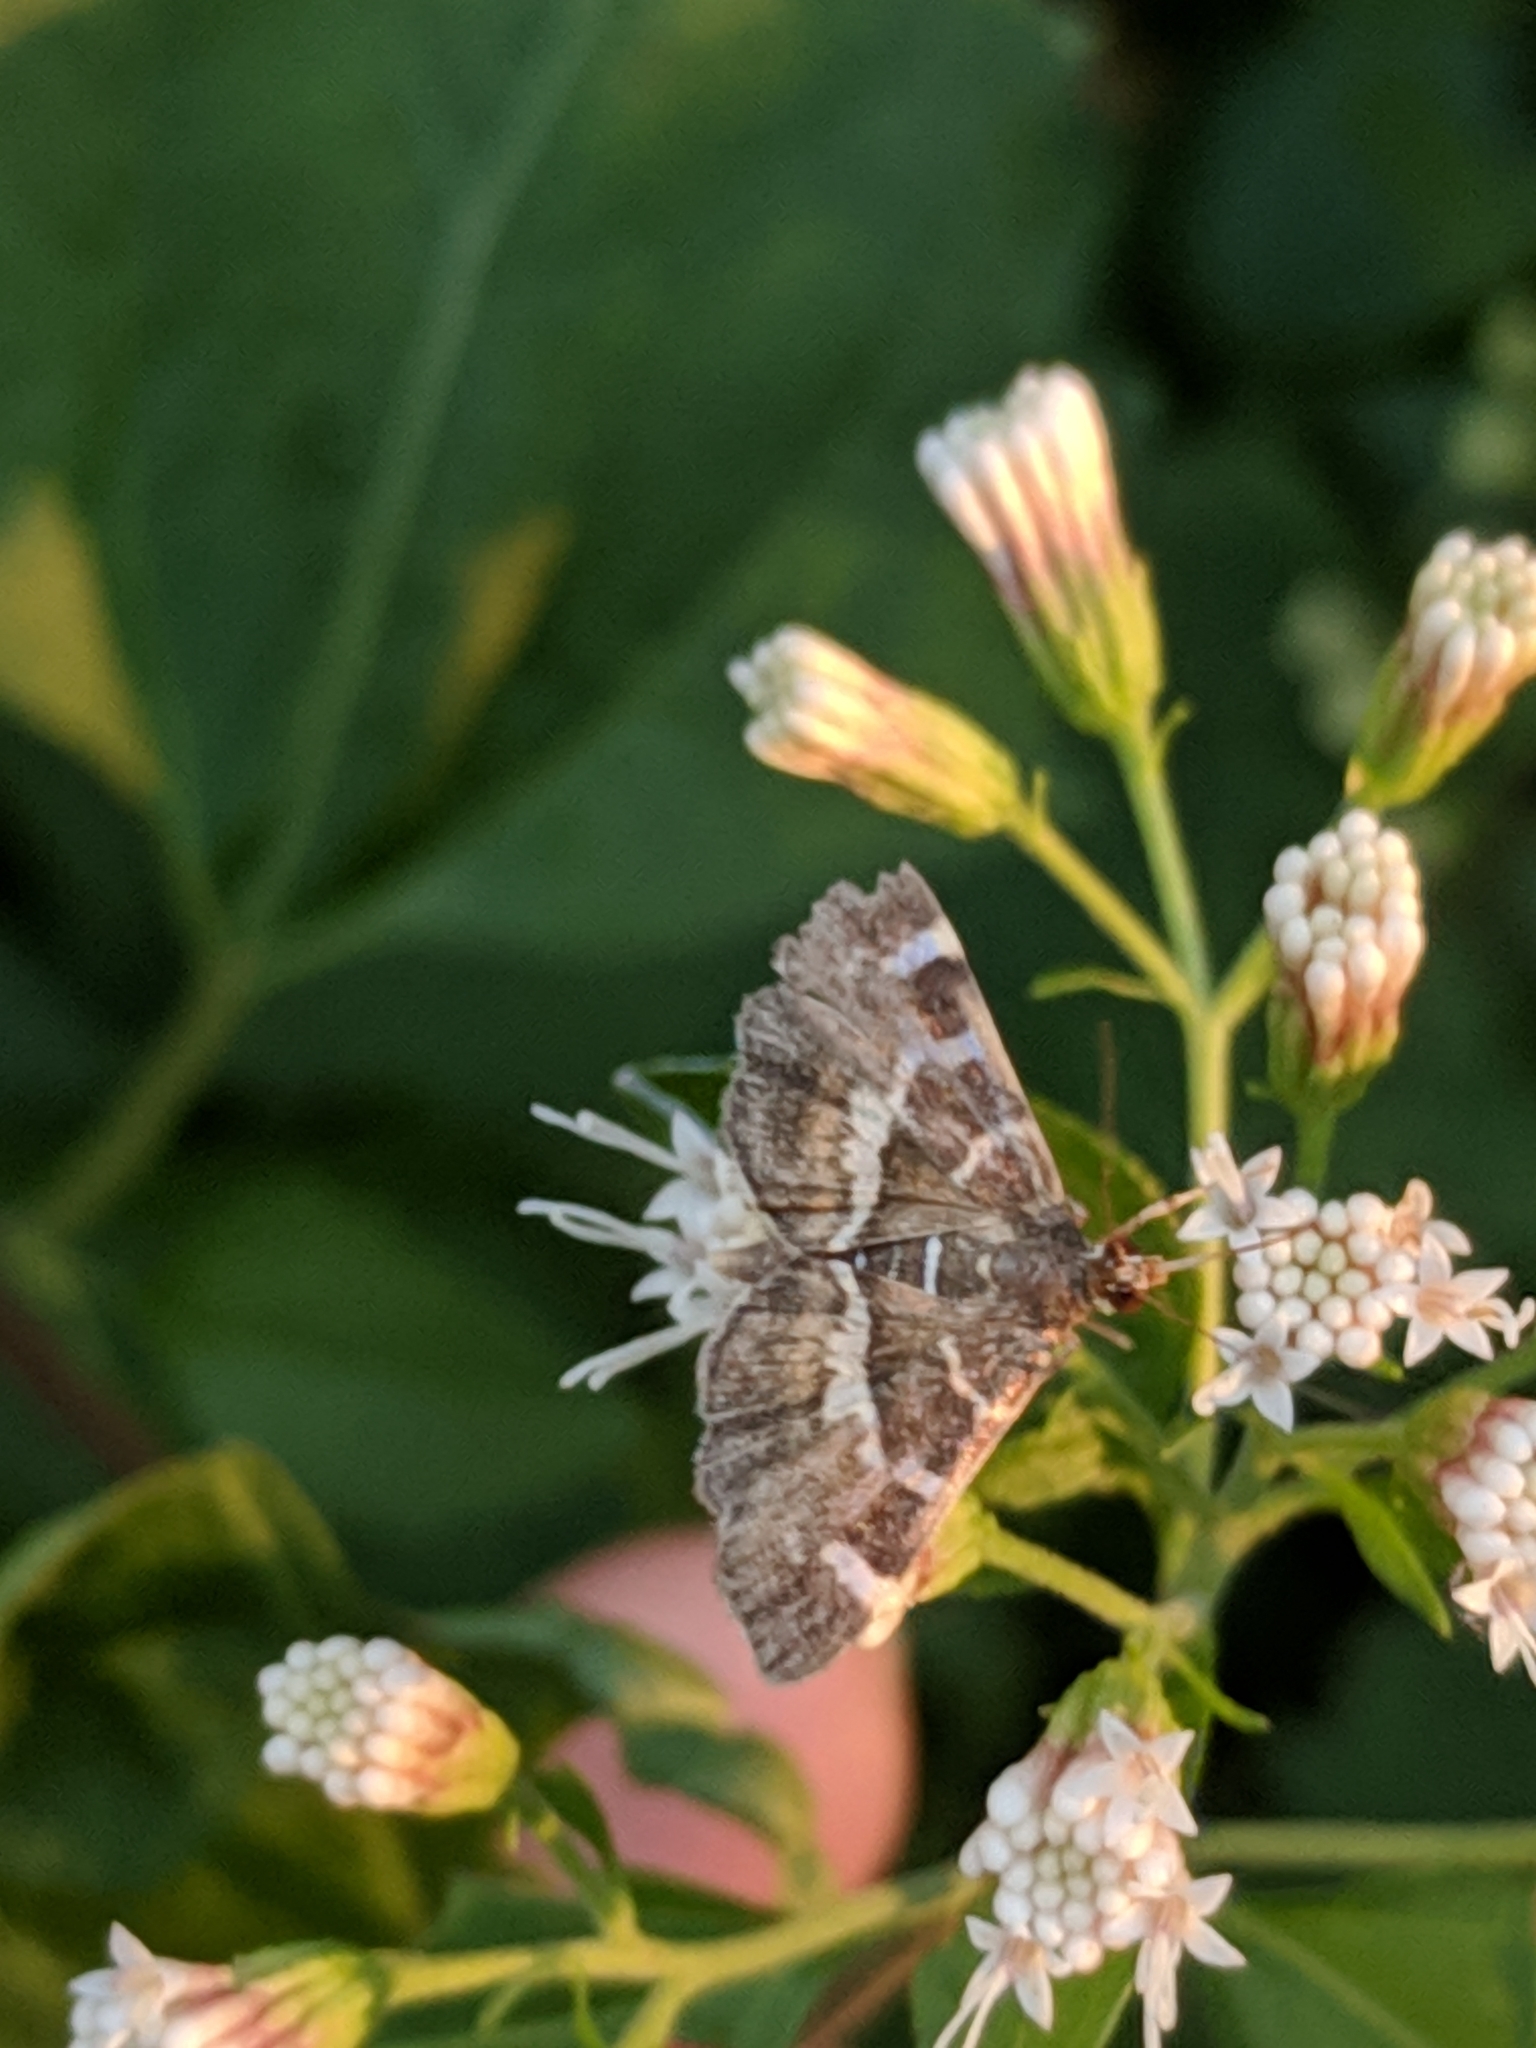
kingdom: Animalia
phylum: Arthropoda
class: Insecta
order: Lepidoptera
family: Crambidae
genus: Hymenia
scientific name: Hymenia perspectalis
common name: Spotted beet webworm
